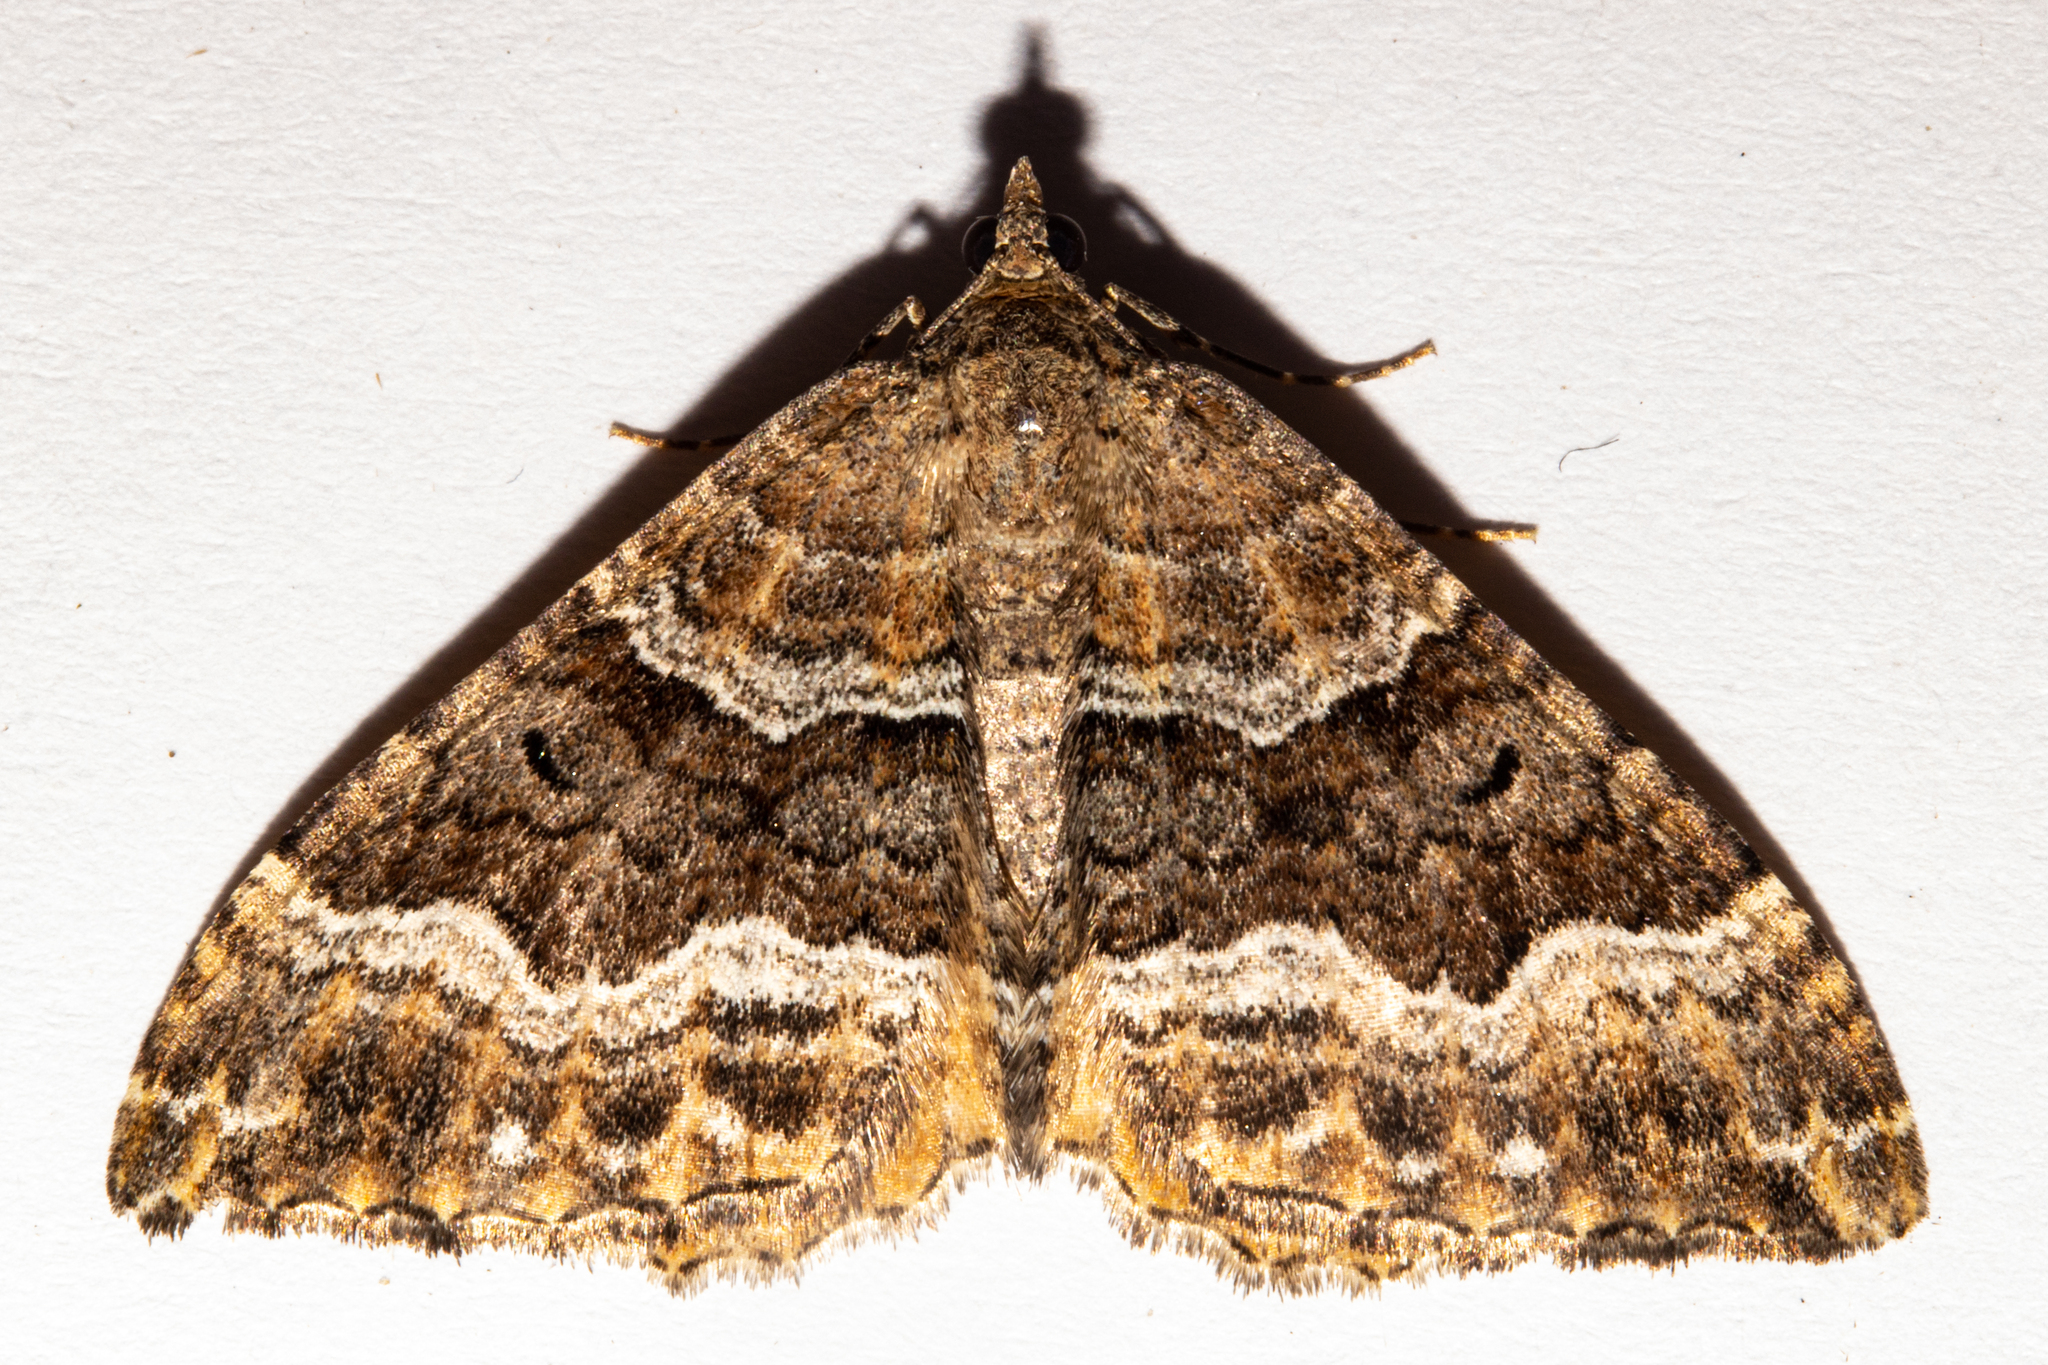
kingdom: Animalia
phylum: Arthropoda
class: Insecta
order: Lepidoptera
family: Geometridae
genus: Hydriomena
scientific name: Hydriomena deltoidata
